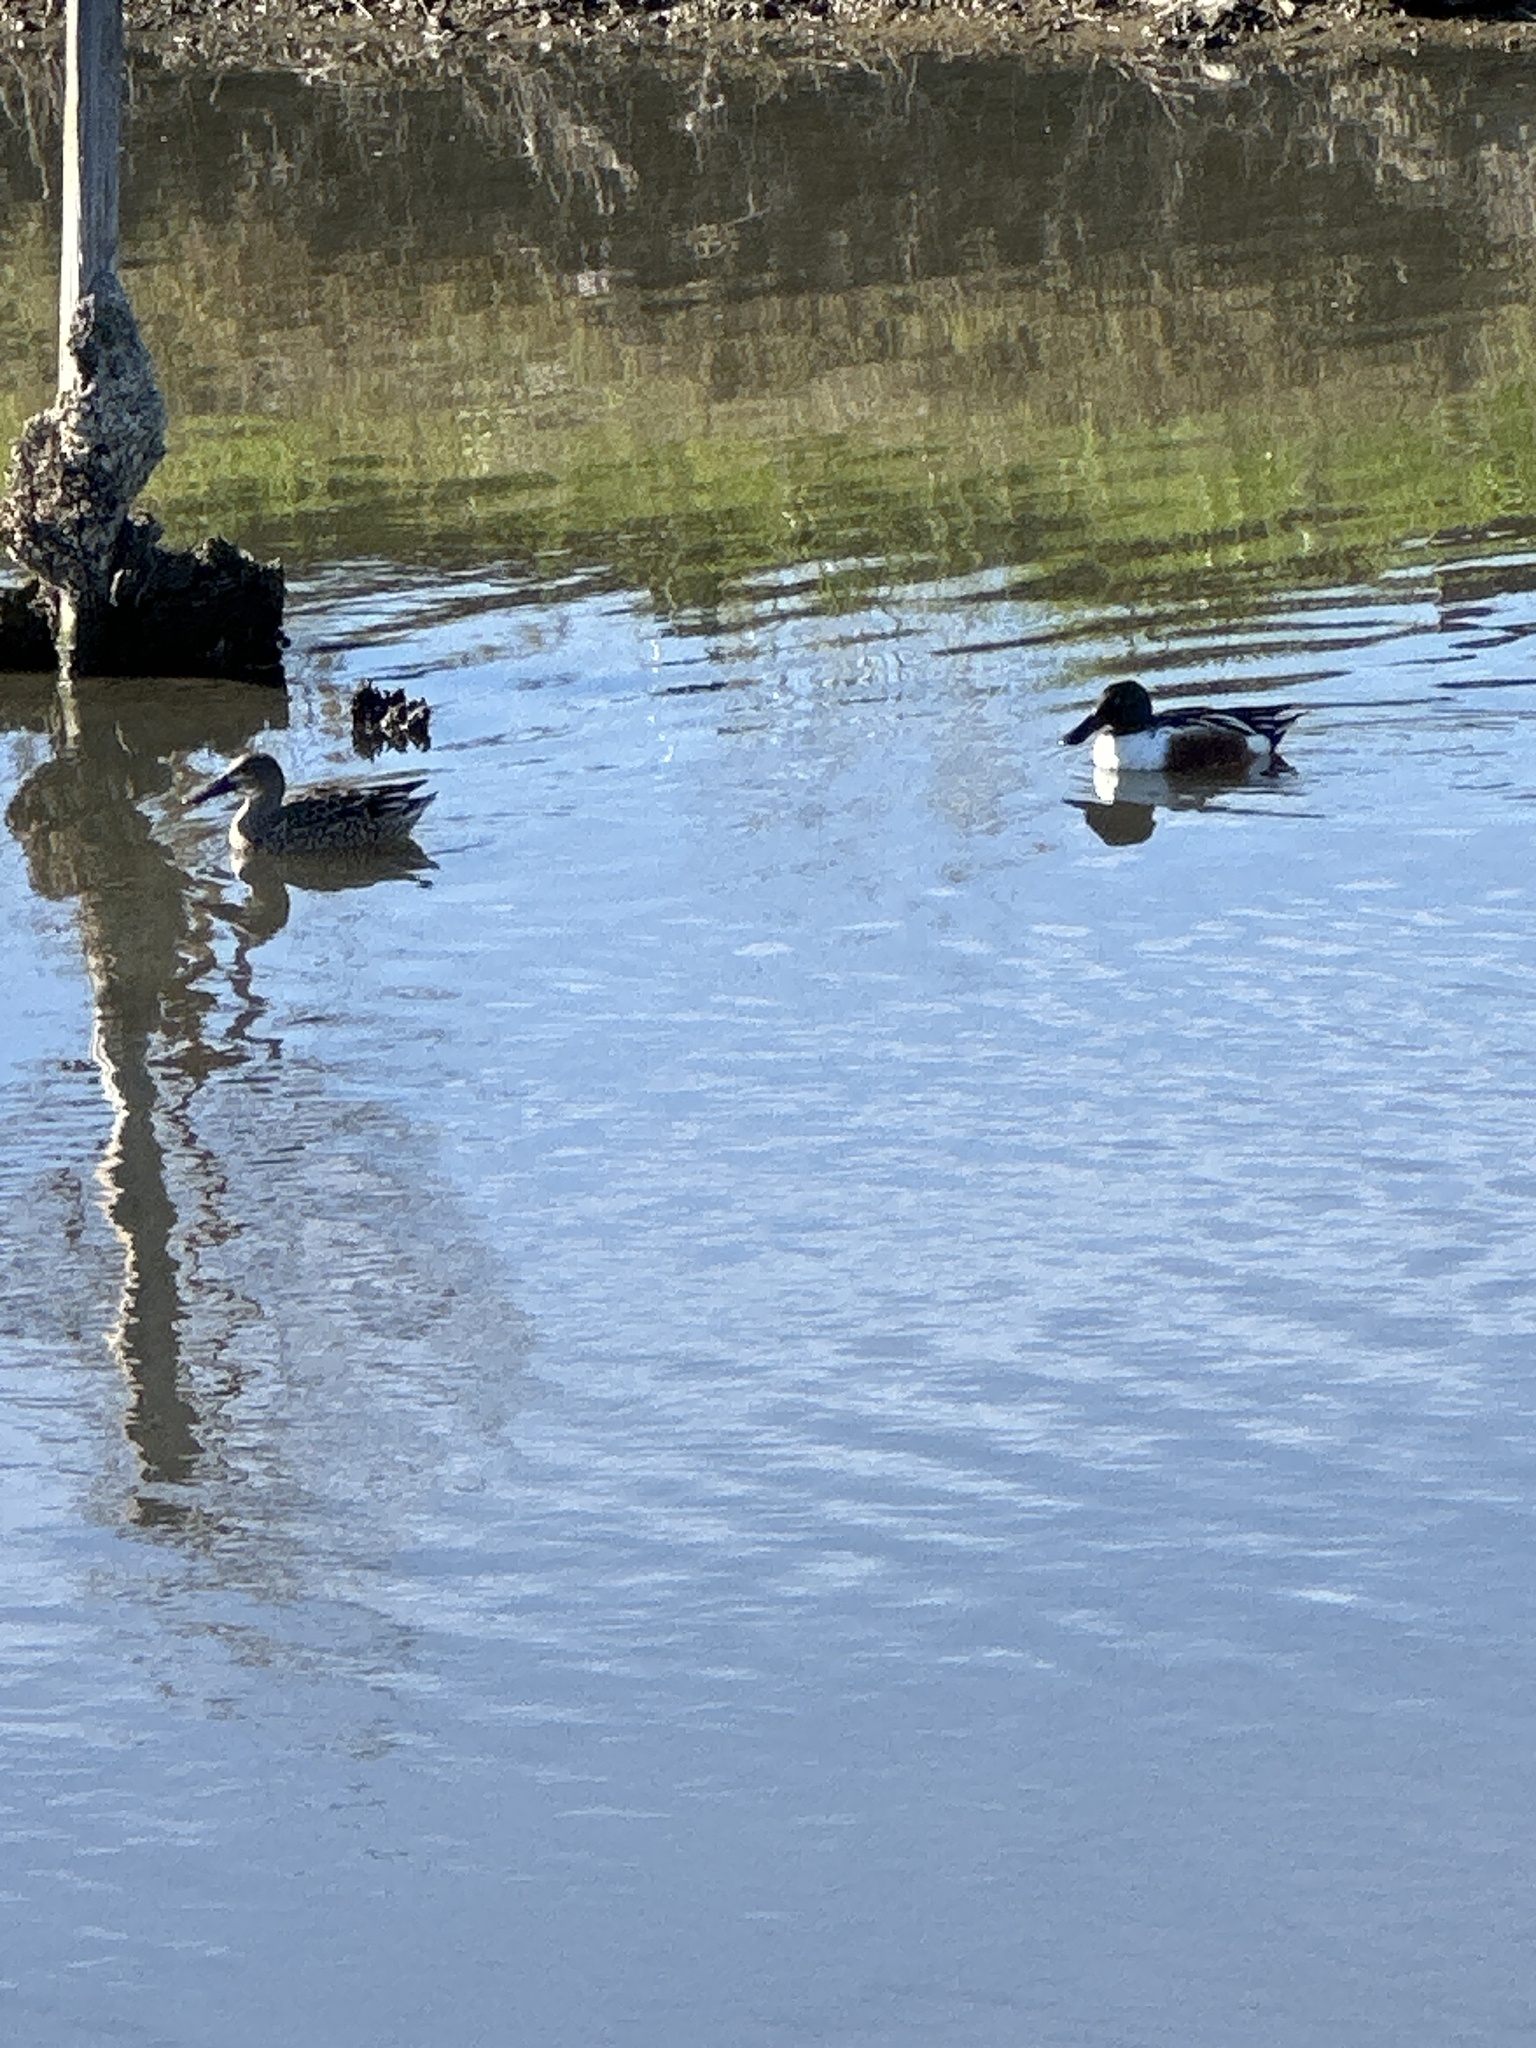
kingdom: Animalia
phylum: Chordata
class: Aves
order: Anseriformes
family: Anatidae
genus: Spatula
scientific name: Spatula clypeata
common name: Northern shoveler
